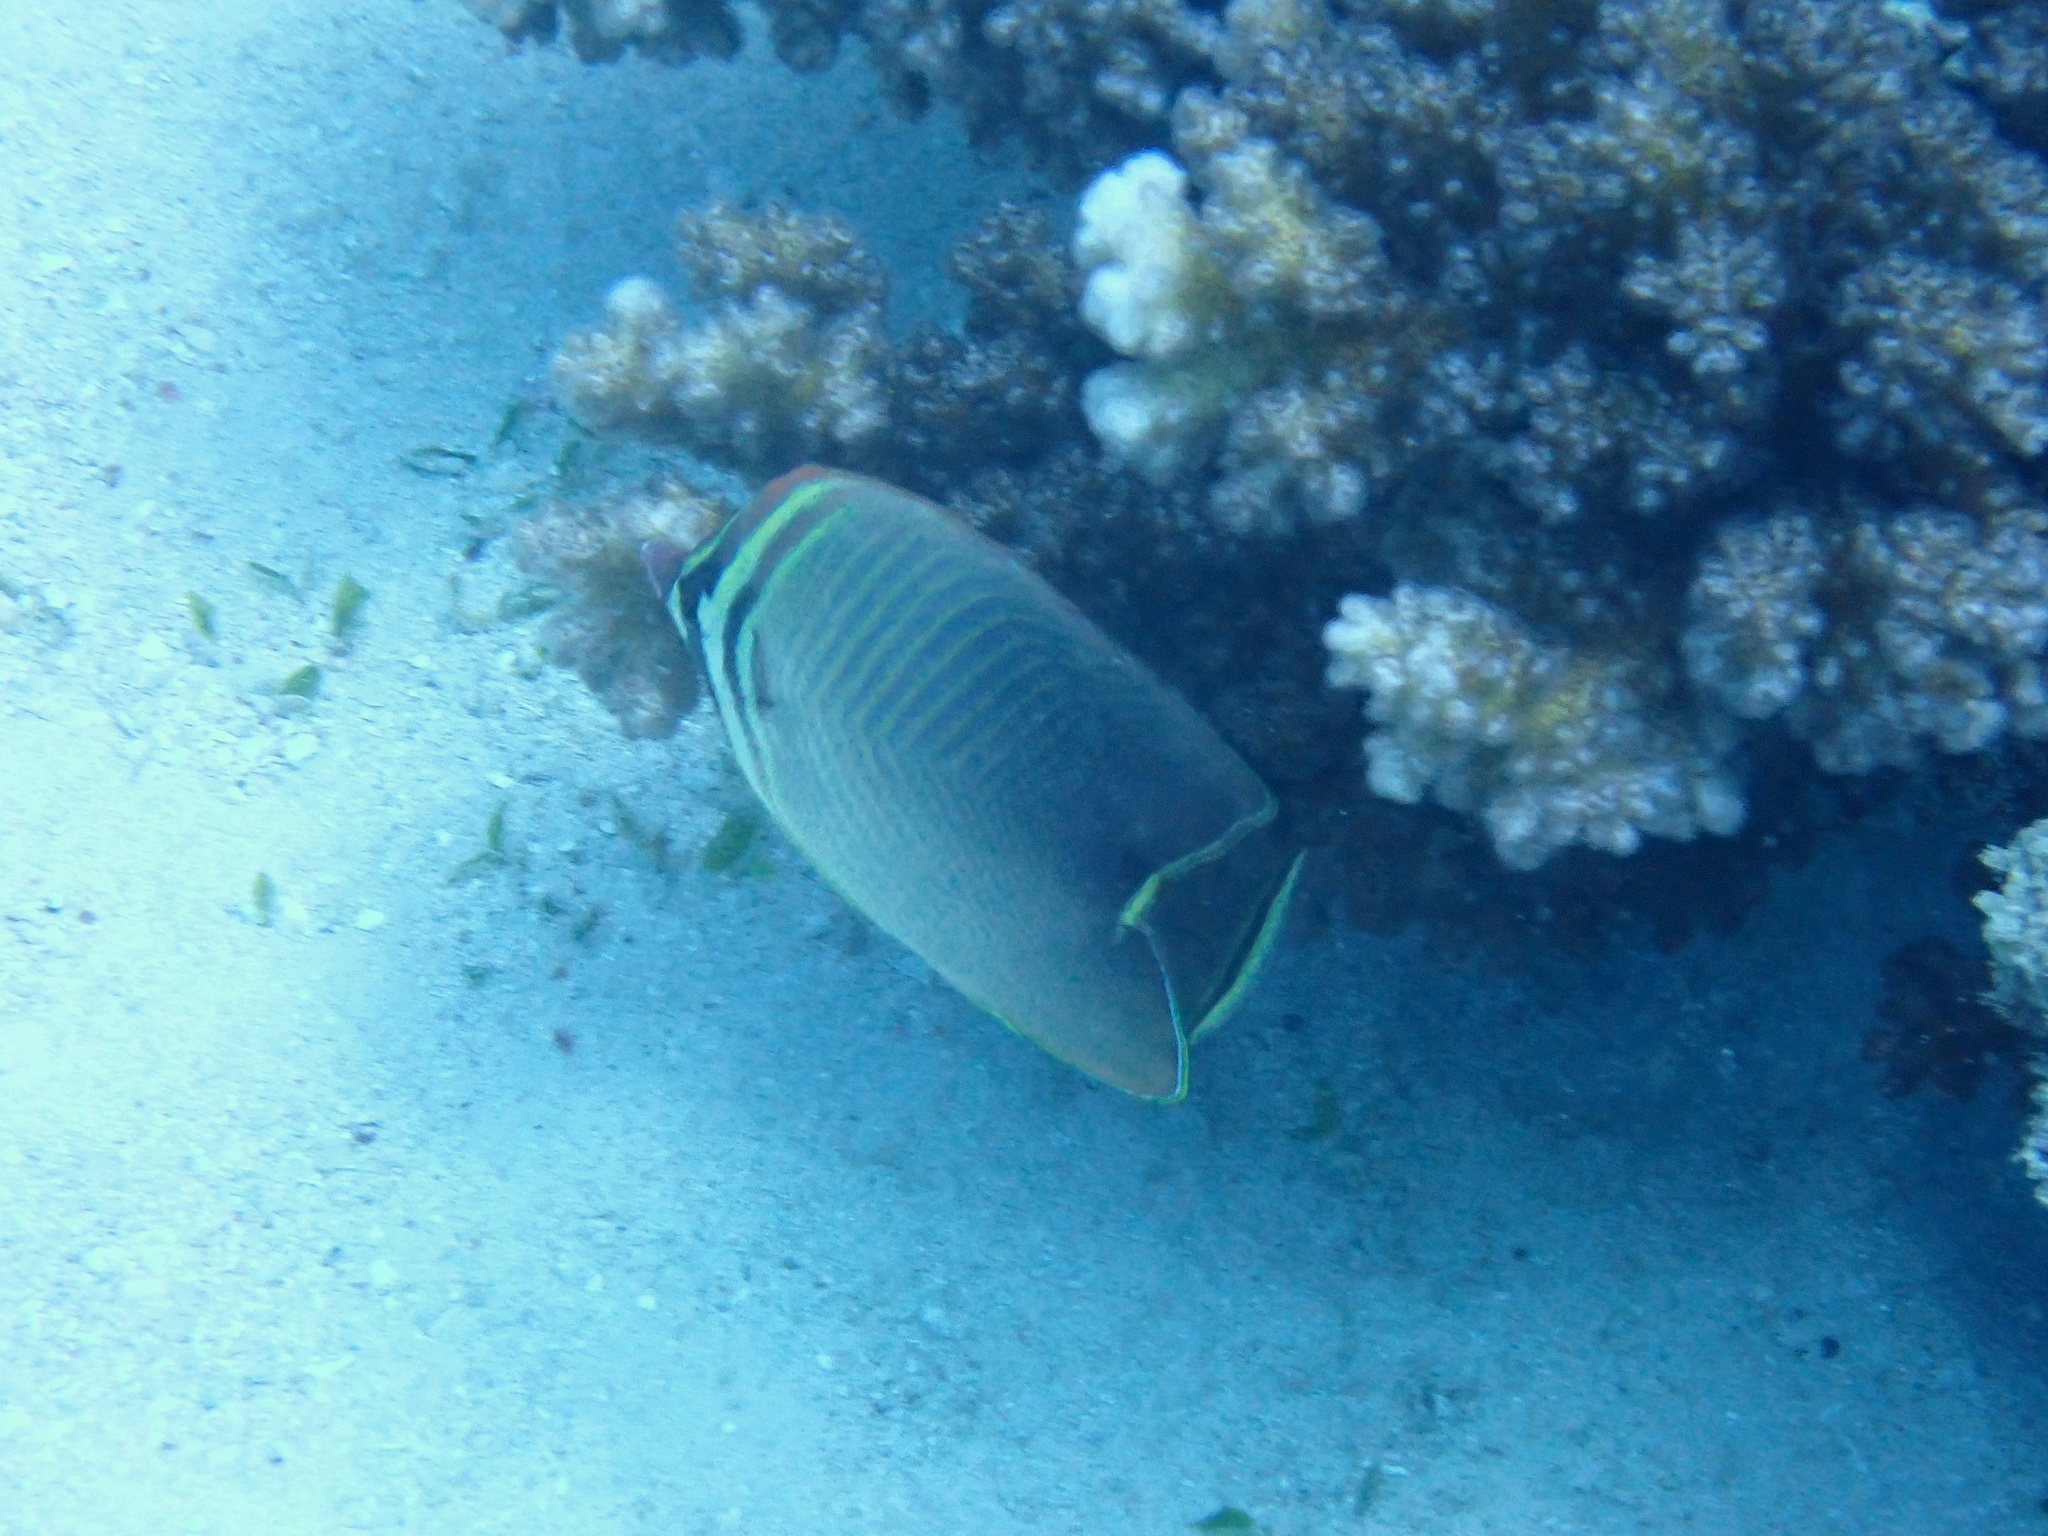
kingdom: Animalia
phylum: Chordata
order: Perciformes
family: Chaetodontidae
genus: Chaetodon
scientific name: Chaetodon baronessa
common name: Triangular butterflyfish
